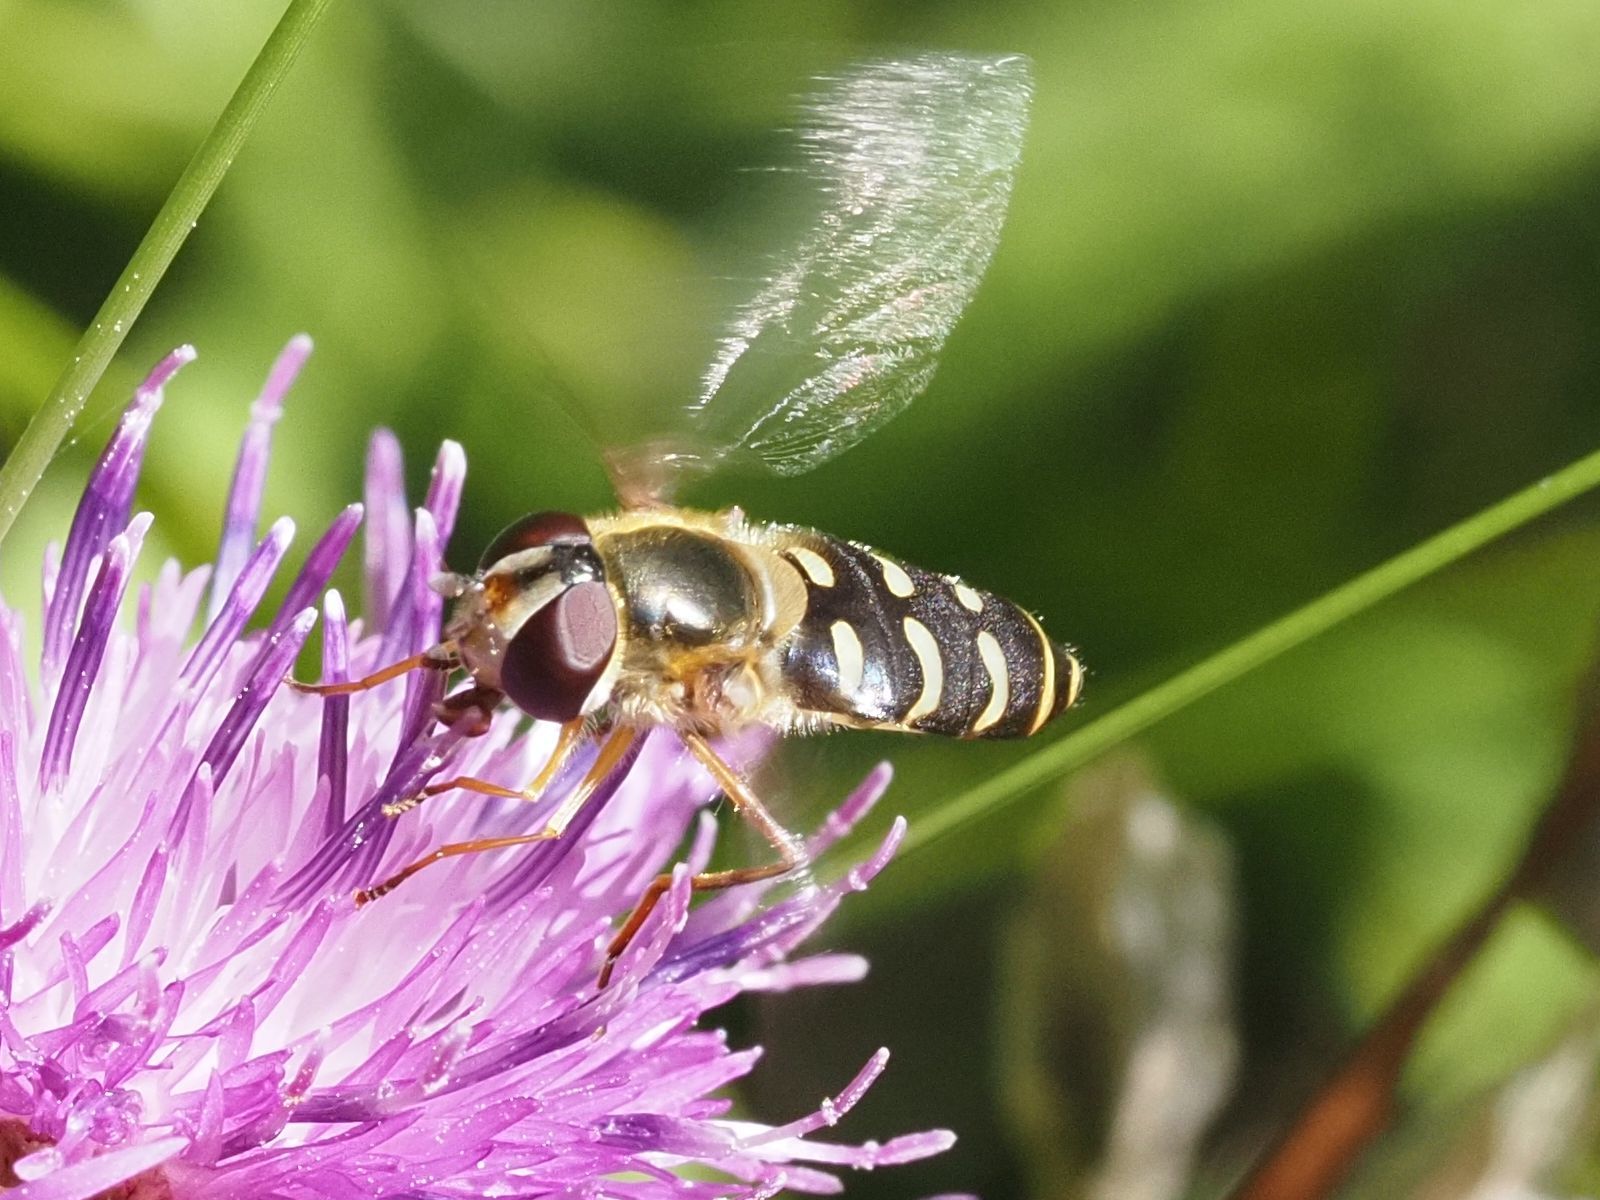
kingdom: Animalia
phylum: Arthropoda
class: Insecta
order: Diptera
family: Syrphidae
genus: Lapposyrphus
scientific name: Lapposyrphus lapponicus
